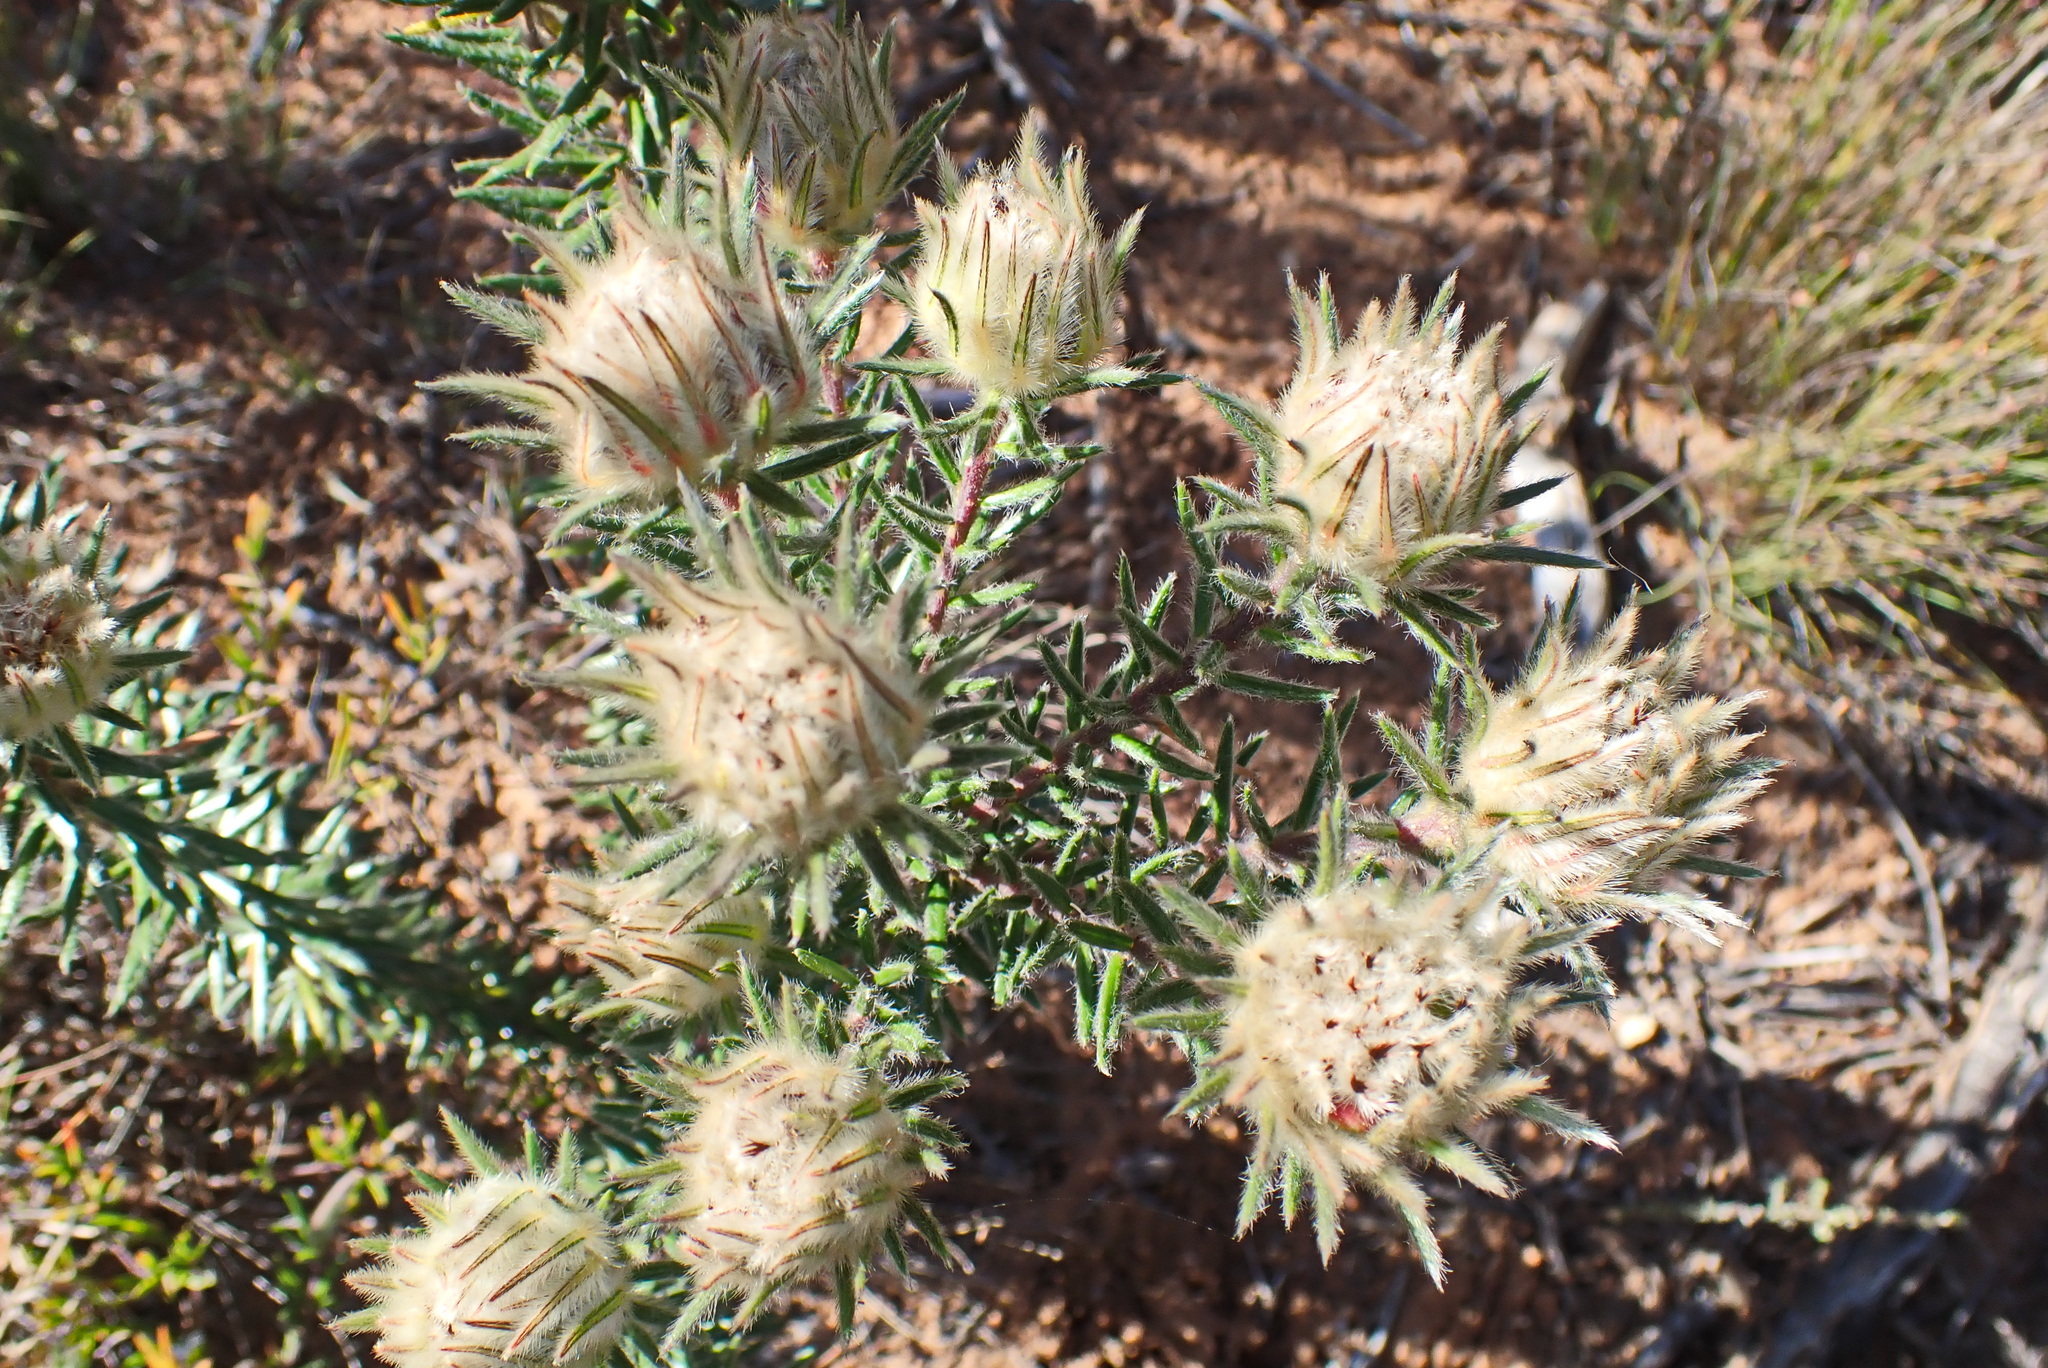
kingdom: Plantae
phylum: Tracheophyta
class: Magnoliopsida
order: Rosales
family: Rhamnaceae
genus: Phylica
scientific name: Phylica pubescens
